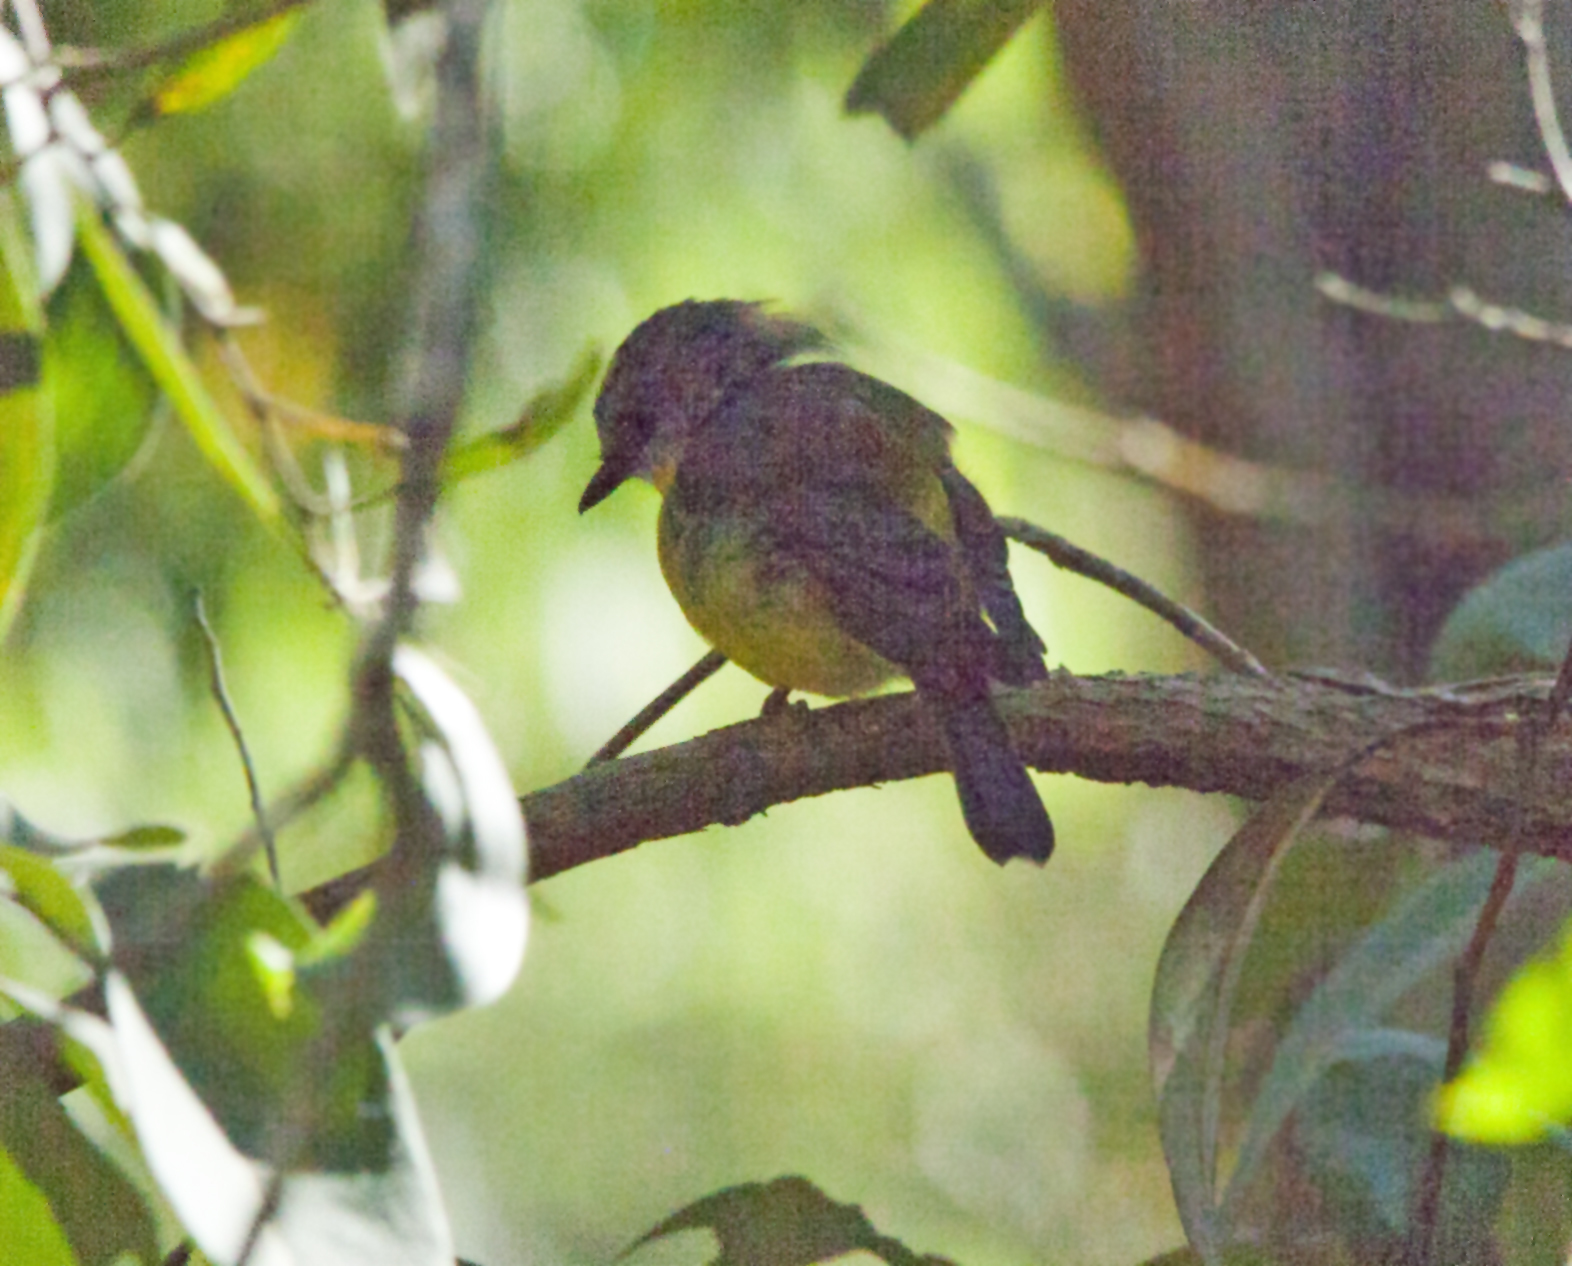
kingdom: Animalia
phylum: Chordata
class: Aves
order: Passeriformes
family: Petroicidae
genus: Eopsaltria
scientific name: Eopsaltria australis
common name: Eastern yellow robin
